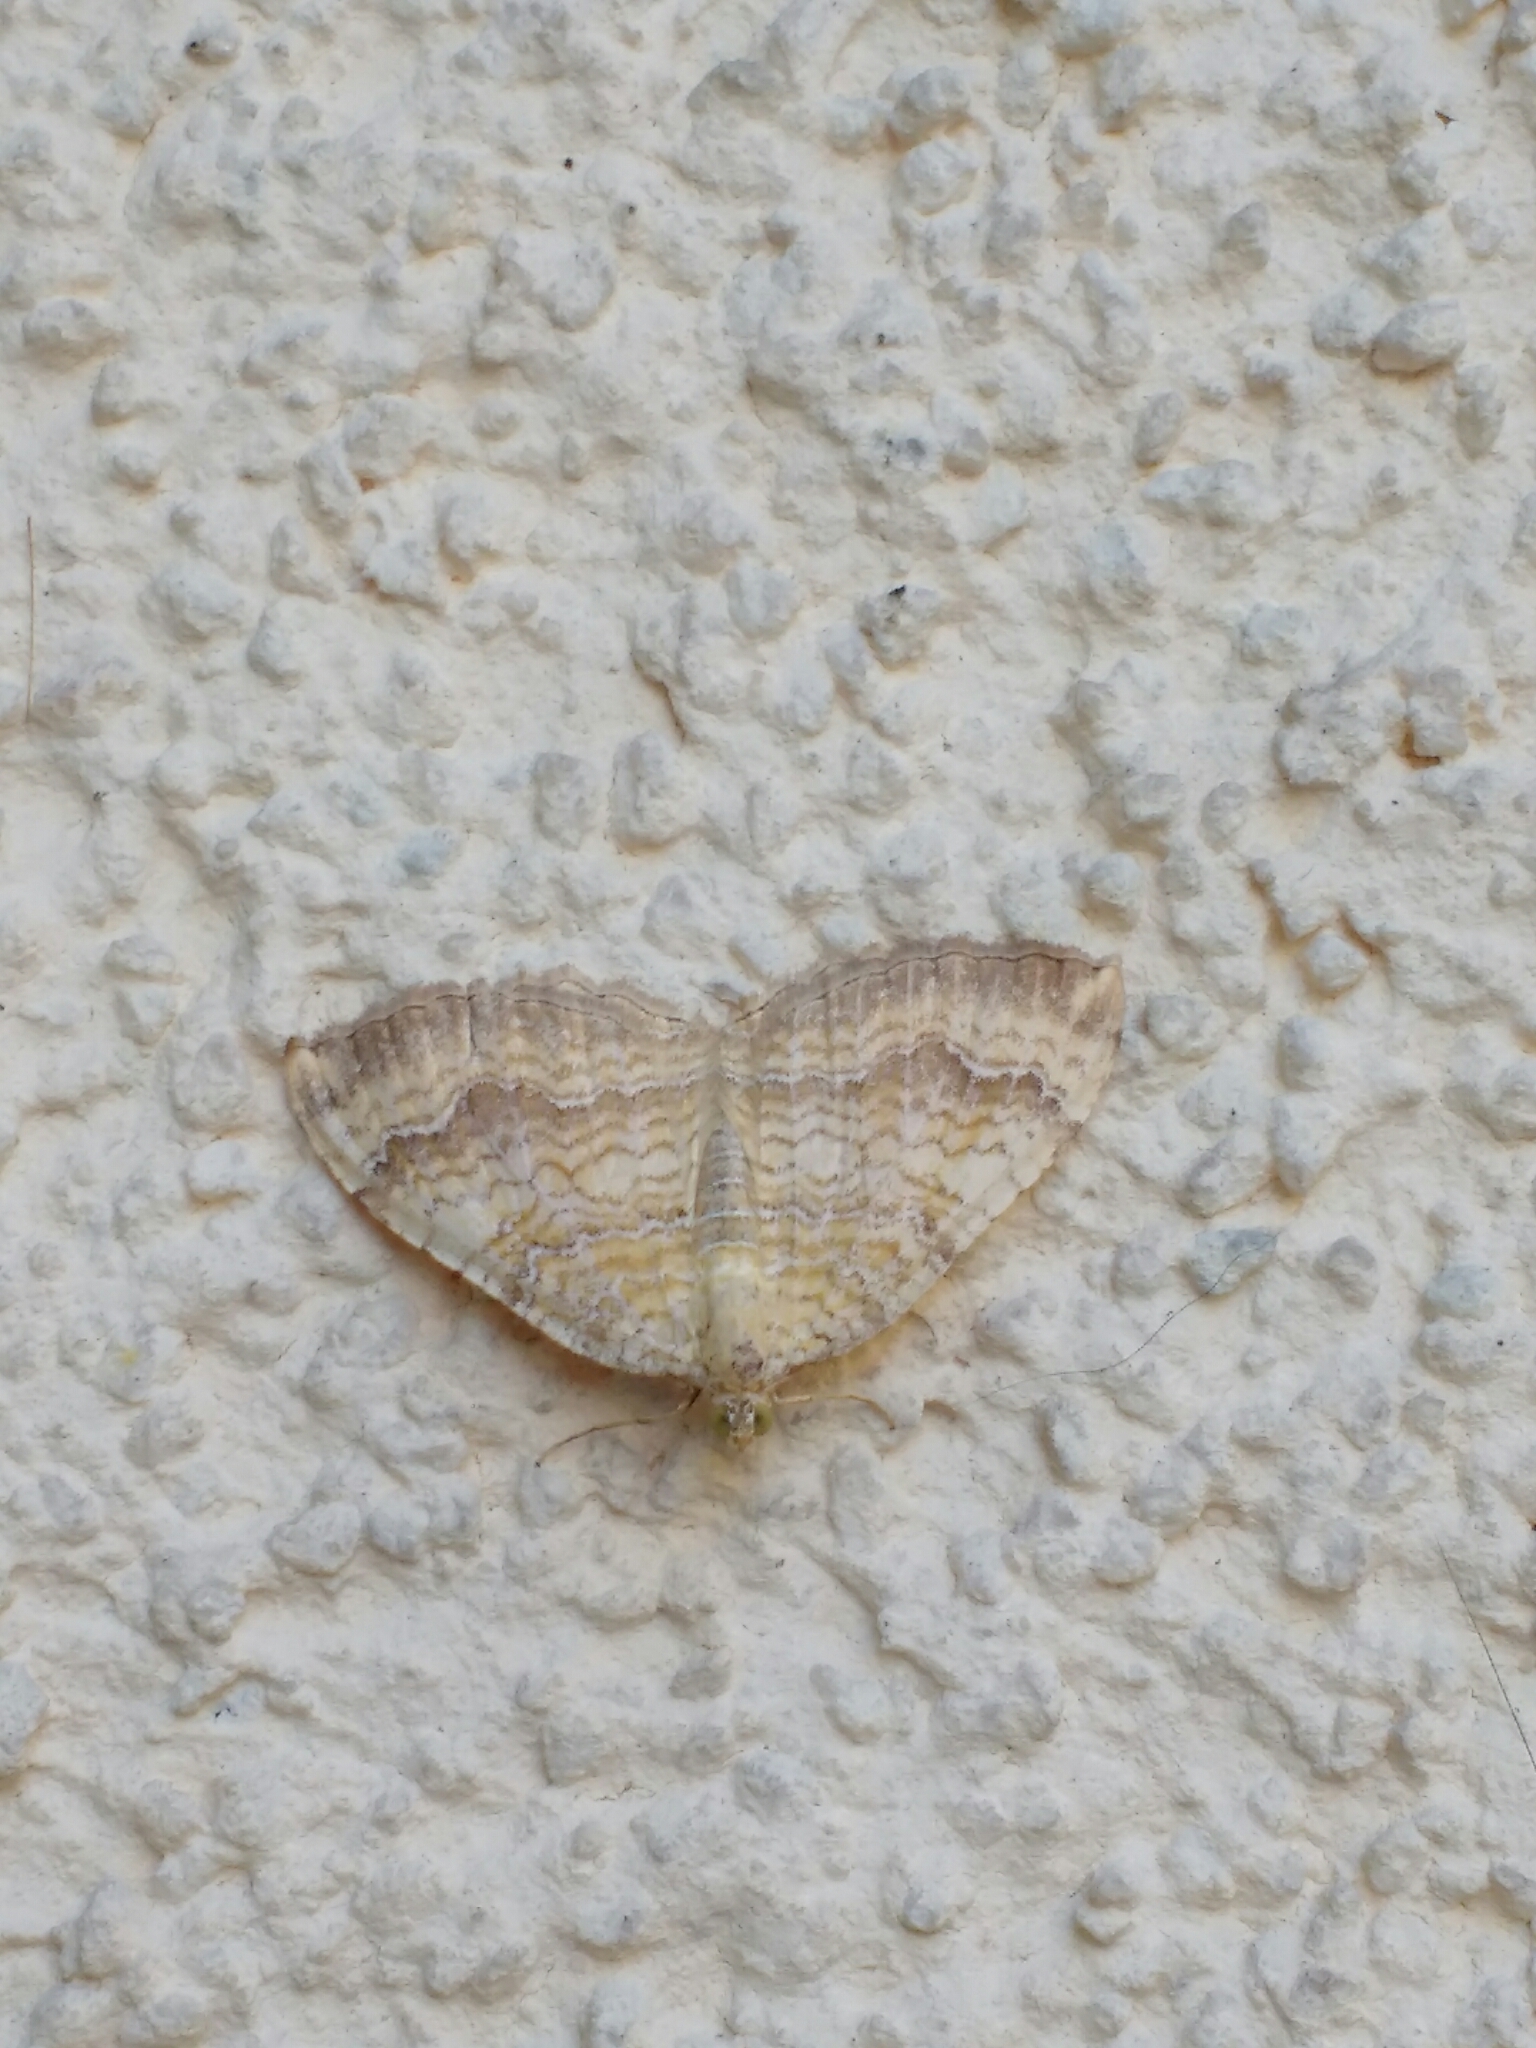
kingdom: Animalia
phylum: Arthropoda
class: Insecta
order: Lepidoptera
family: Geometridae
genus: Camptogramma
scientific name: Camptogramma bilineata
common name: Yellow shell
